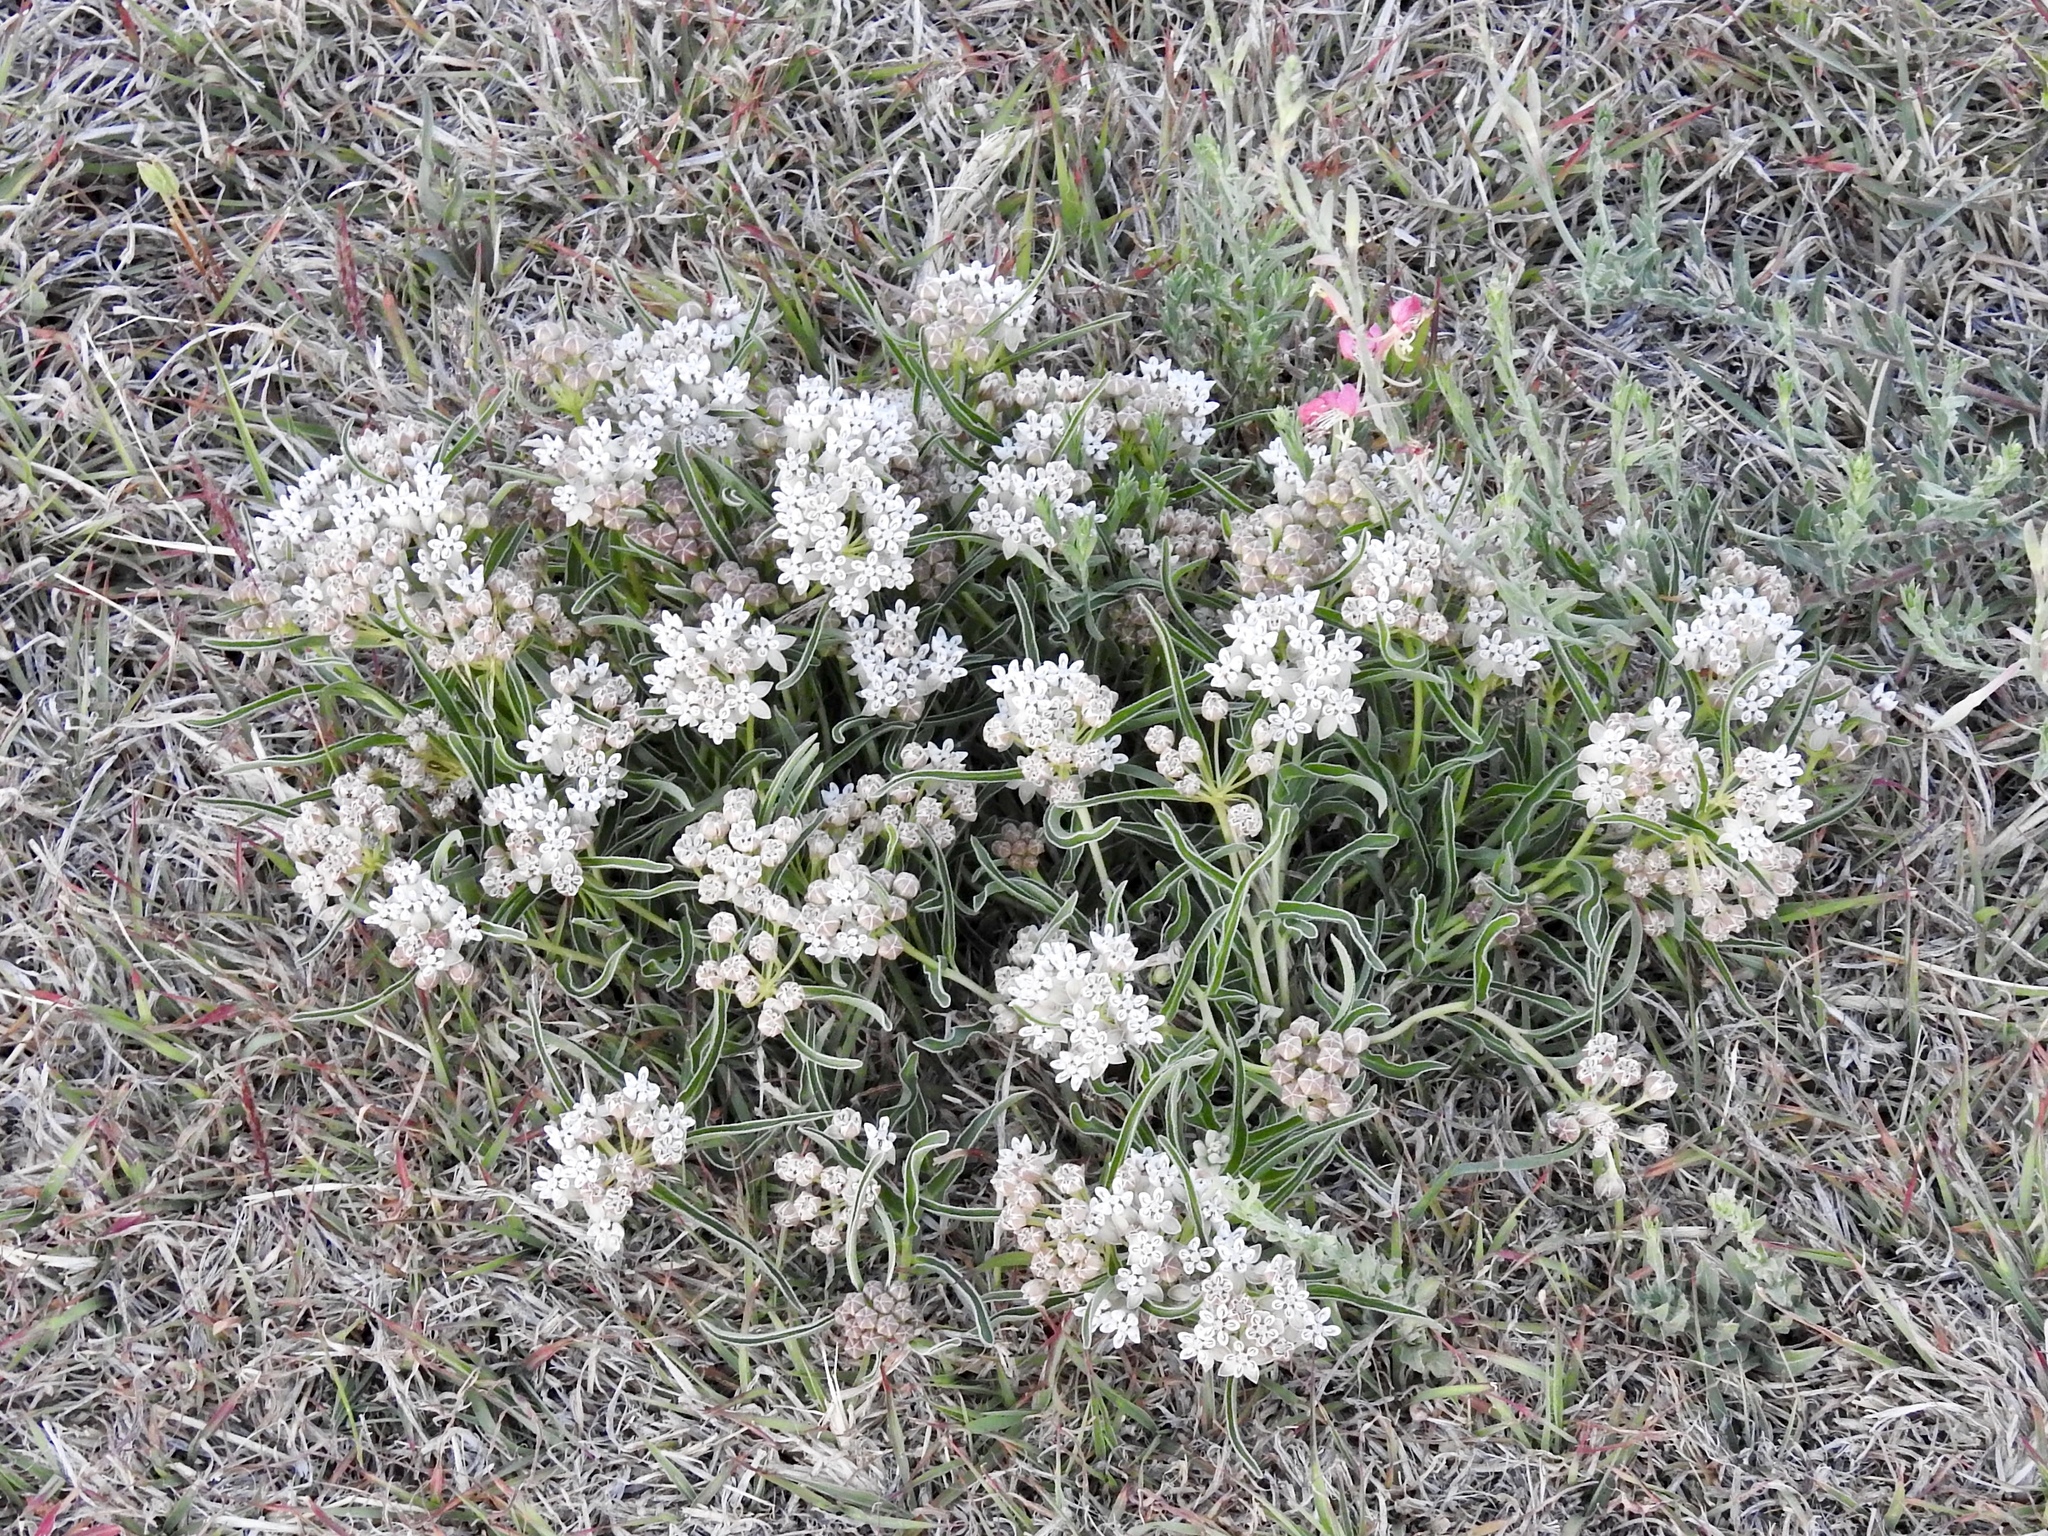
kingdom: Plantae
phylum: Tracheophyta
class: Magnoliopsida
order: Gentianales
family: Apocynaceae
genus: Asclepias
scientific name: Asclepias involucrata
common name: Dwarf milkweed
